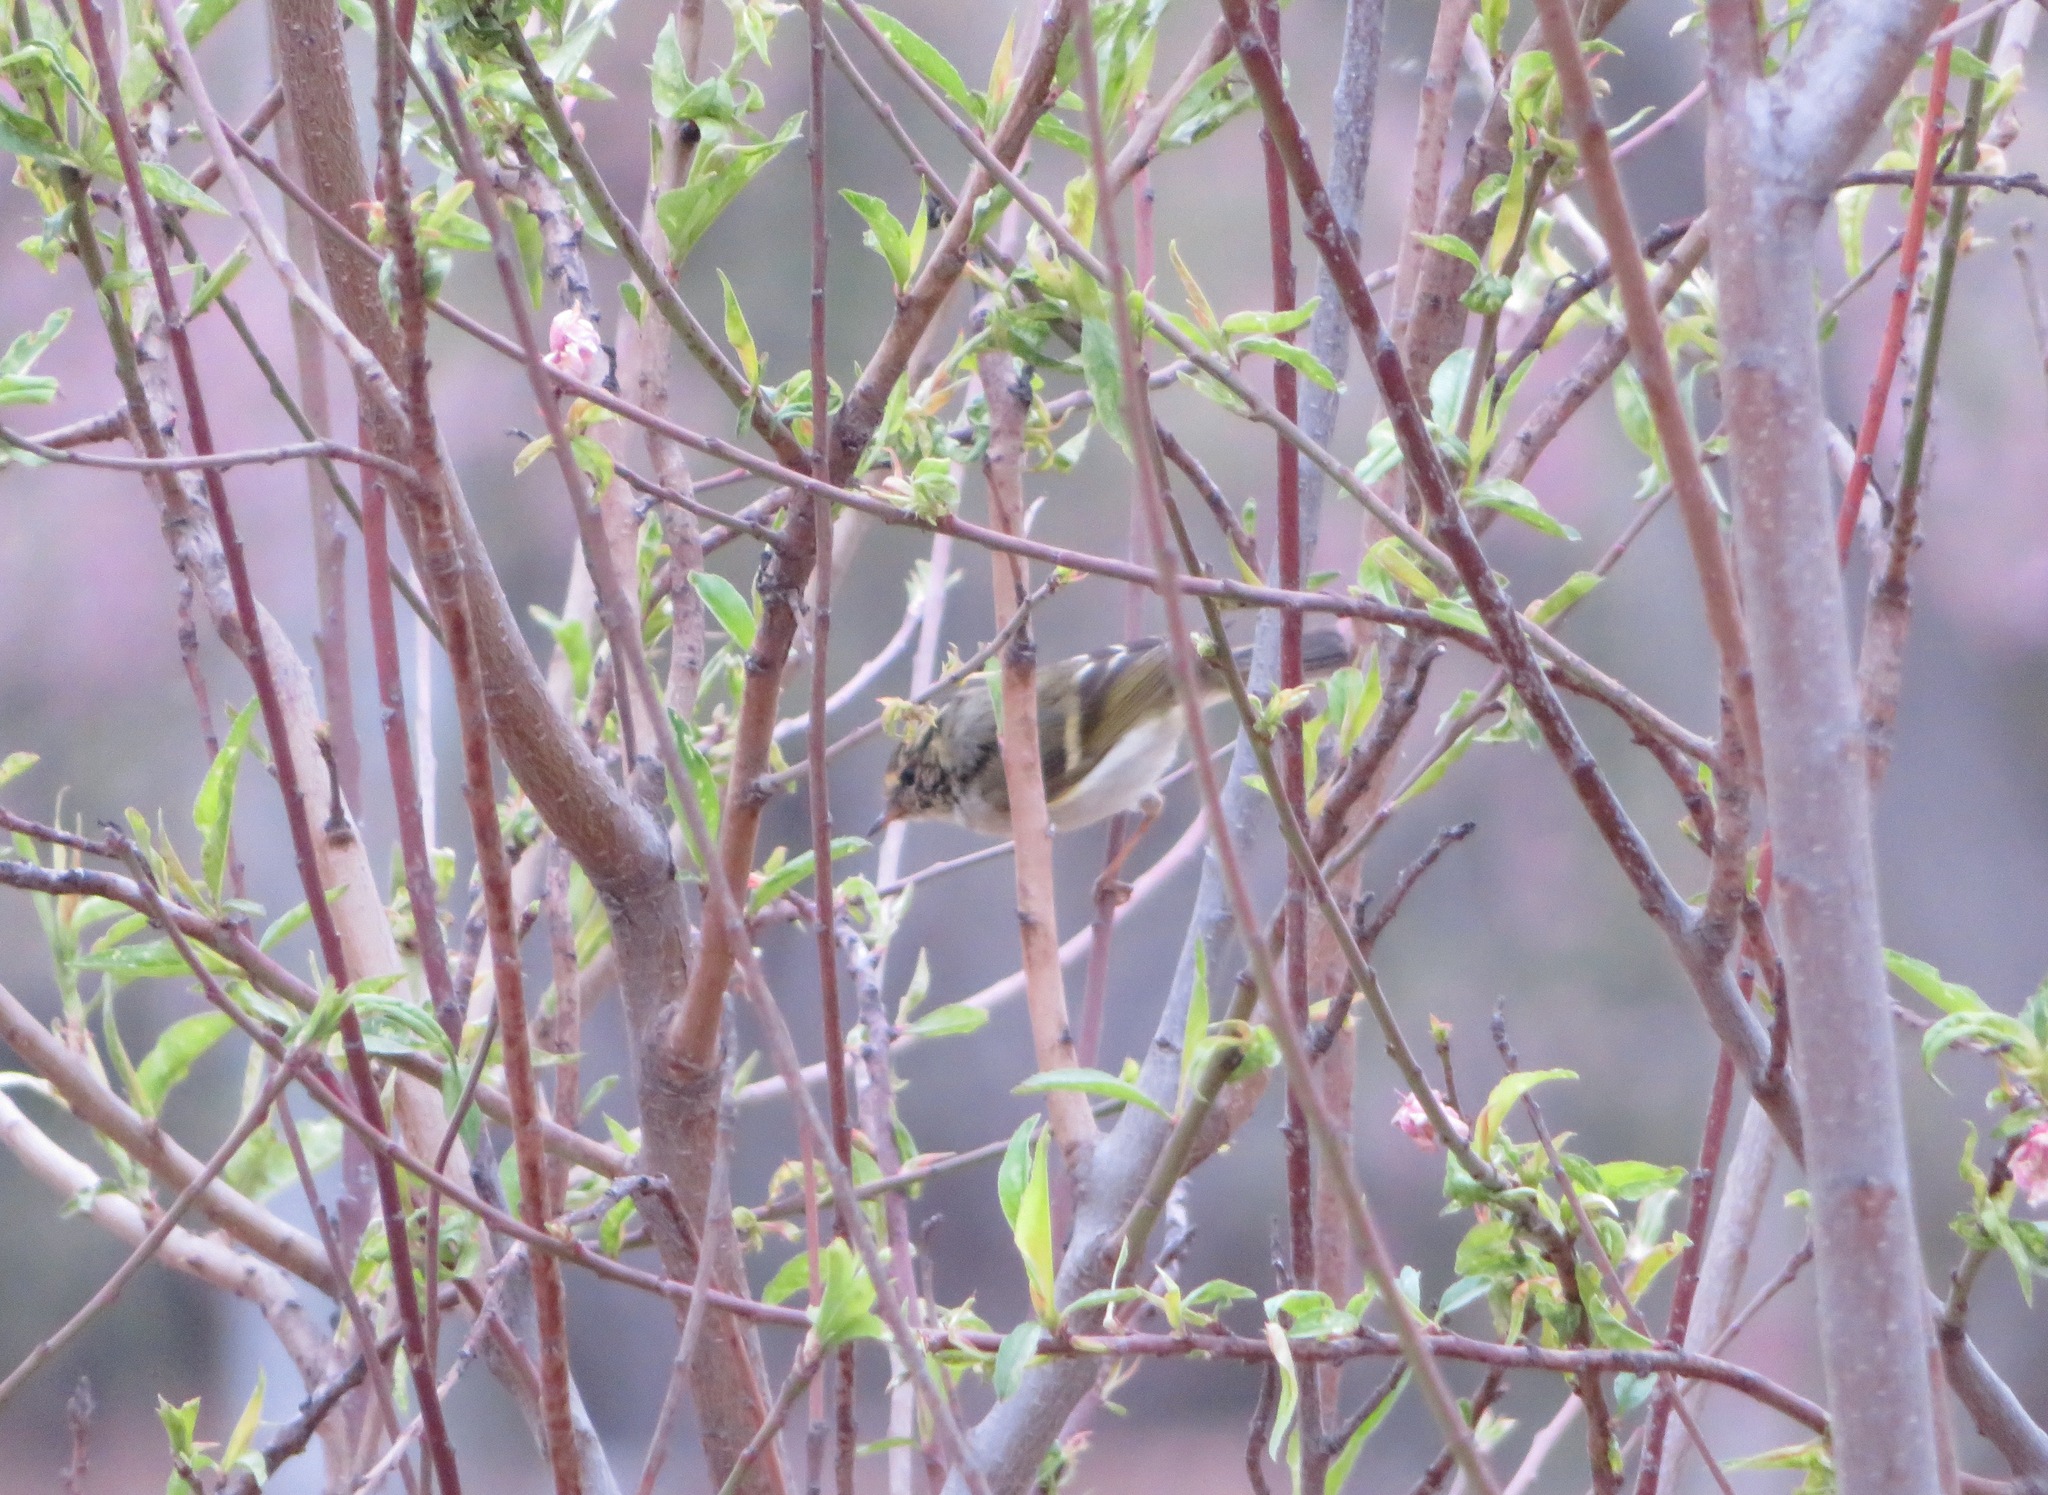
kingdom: Animalia
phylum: Chordata
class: Aves
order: Passeriformes
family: Phylloscopidae
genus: Phylloscopus
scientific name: Phylloscopus proregulus
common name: Pallas's leaf warbler
